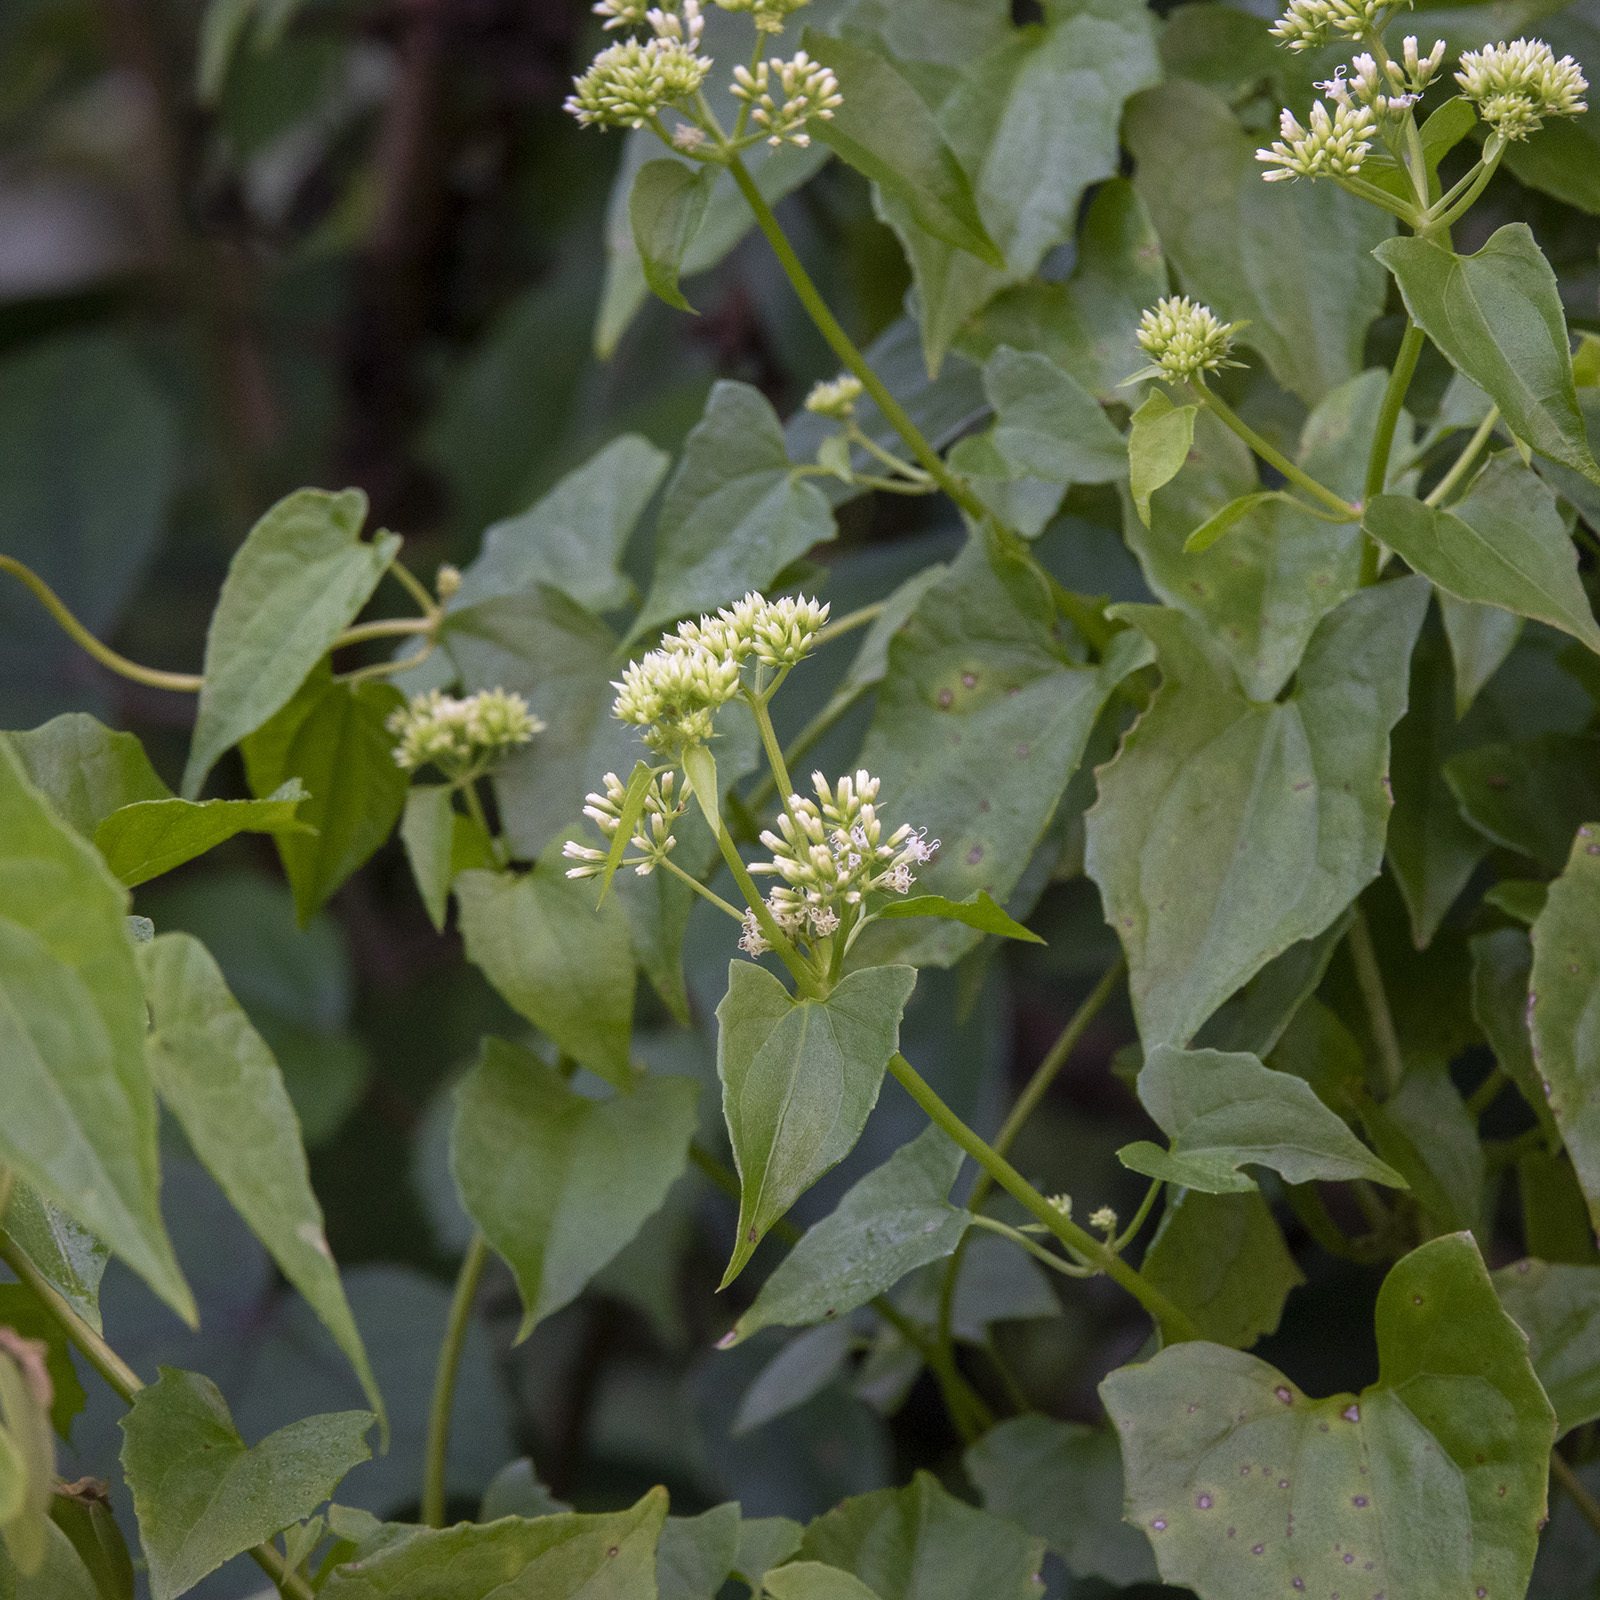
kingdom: Plantae
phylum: Tracheophyta
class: Magnoliopsida
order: Asterales
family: Asteraceae
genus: Mikania
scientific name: Mikania micrantha
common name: Mile-a-minute
